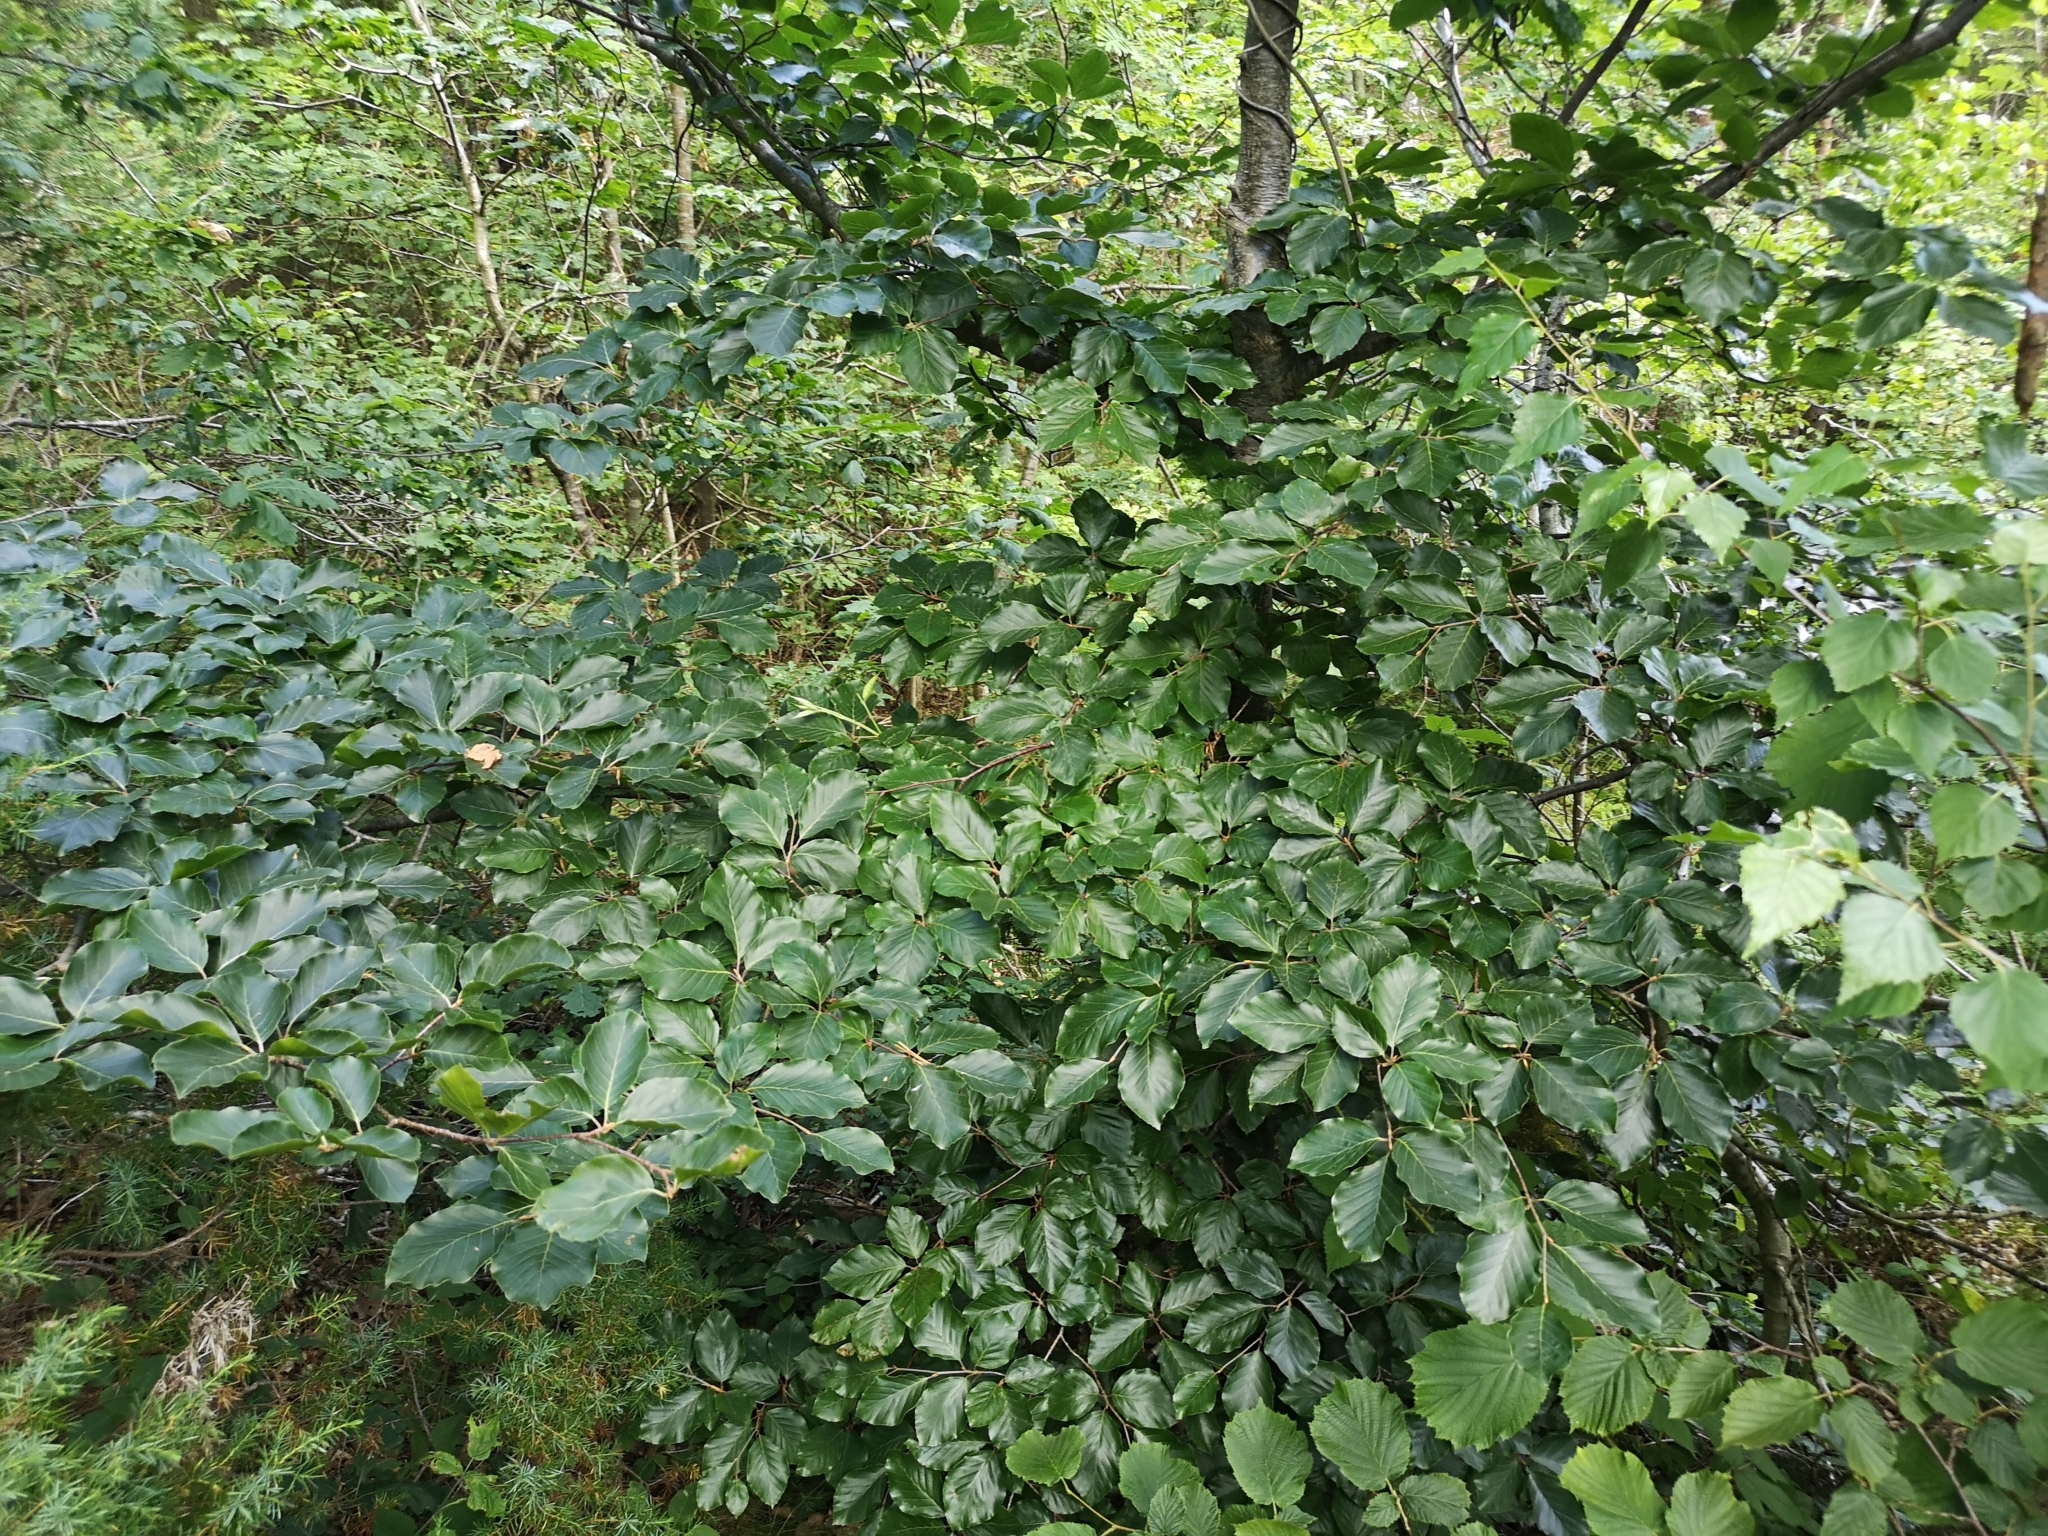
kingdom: Plantae
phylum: Tracheophyta
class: Magnoliopsida
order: Fagales
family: Fagaceae
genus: Fagus
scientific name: Fagus sylvatica
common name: Beech
